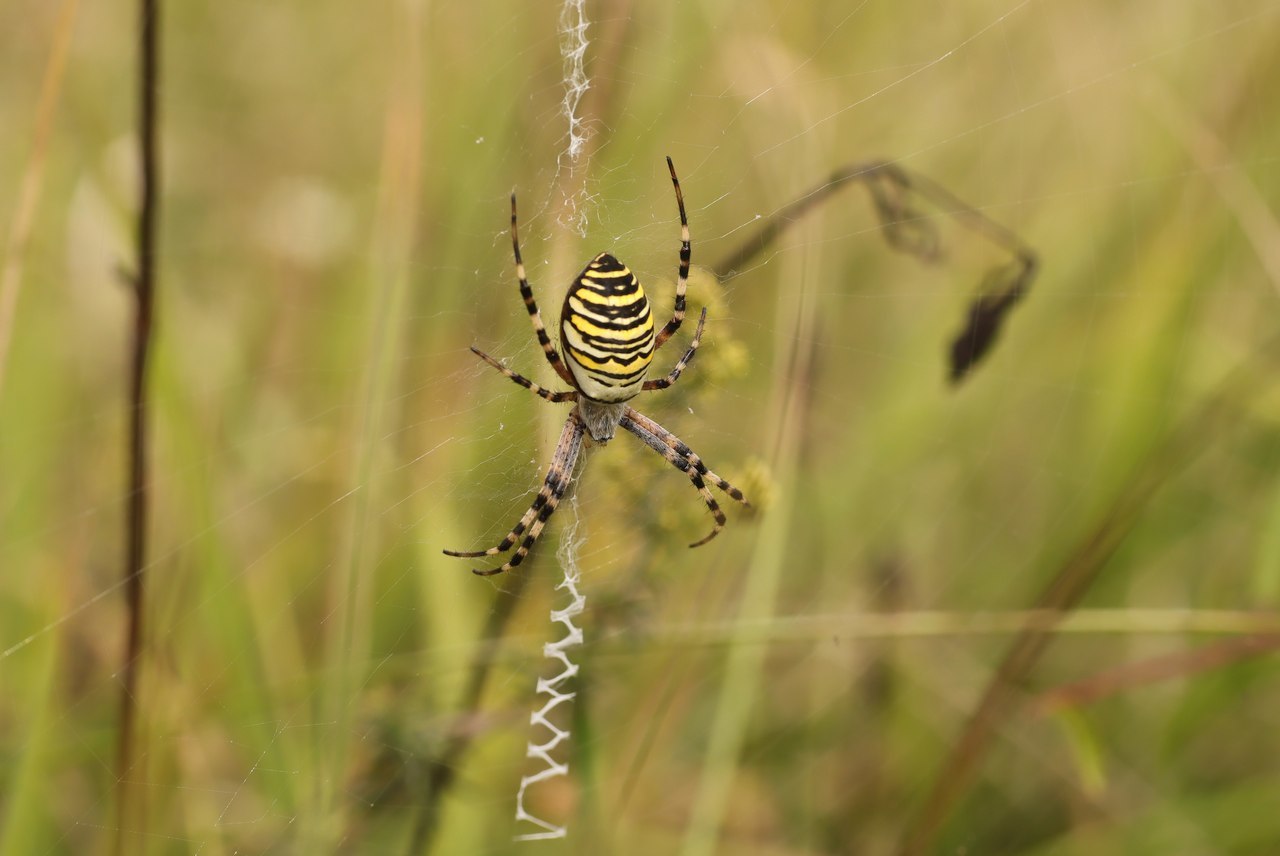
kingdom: Animalia
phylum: Arthropoda
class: Arachnida
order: Araneae
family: Araneidae
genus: Argiope
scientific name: Argiope bruennichi
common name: Wasp spider
